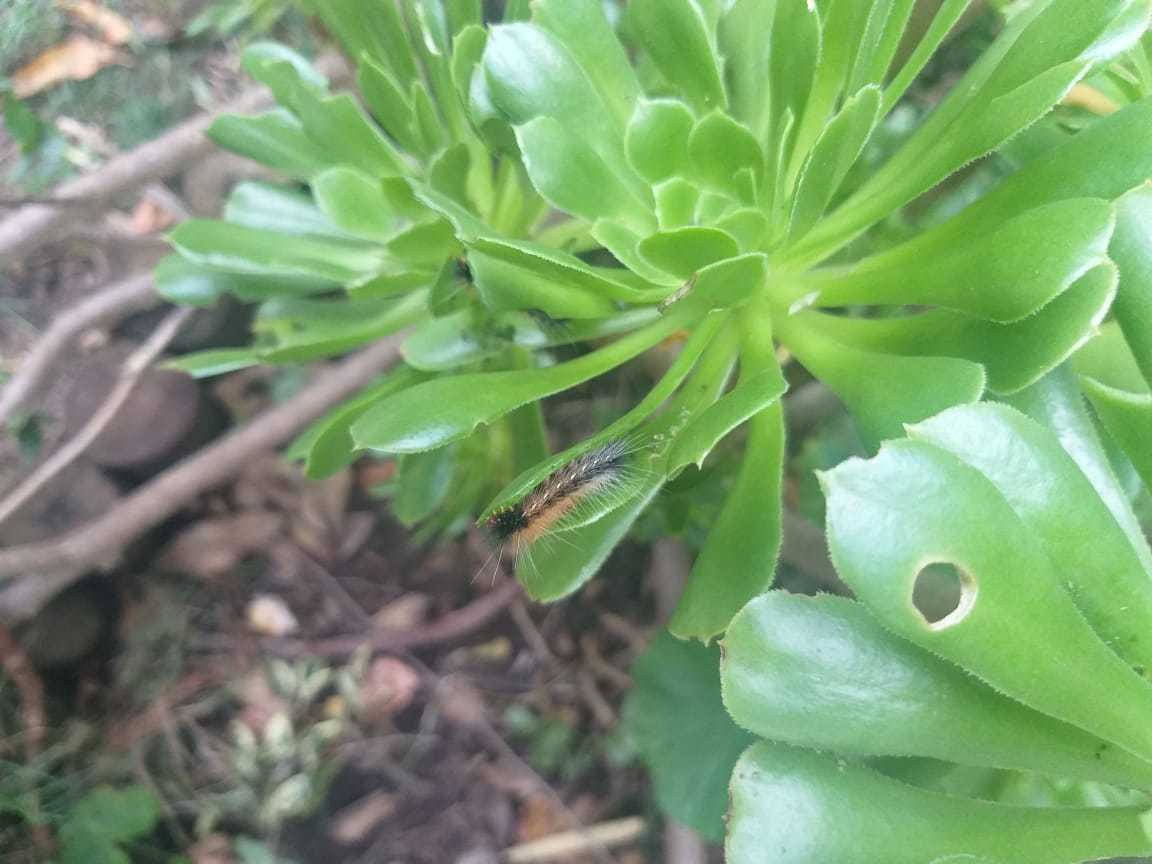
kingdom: Animalia
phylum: Arthropoda
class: Insecta
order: Lepidoptera
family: Erebidae
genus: Rhodogastria
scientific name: Rhodogastria amasis
